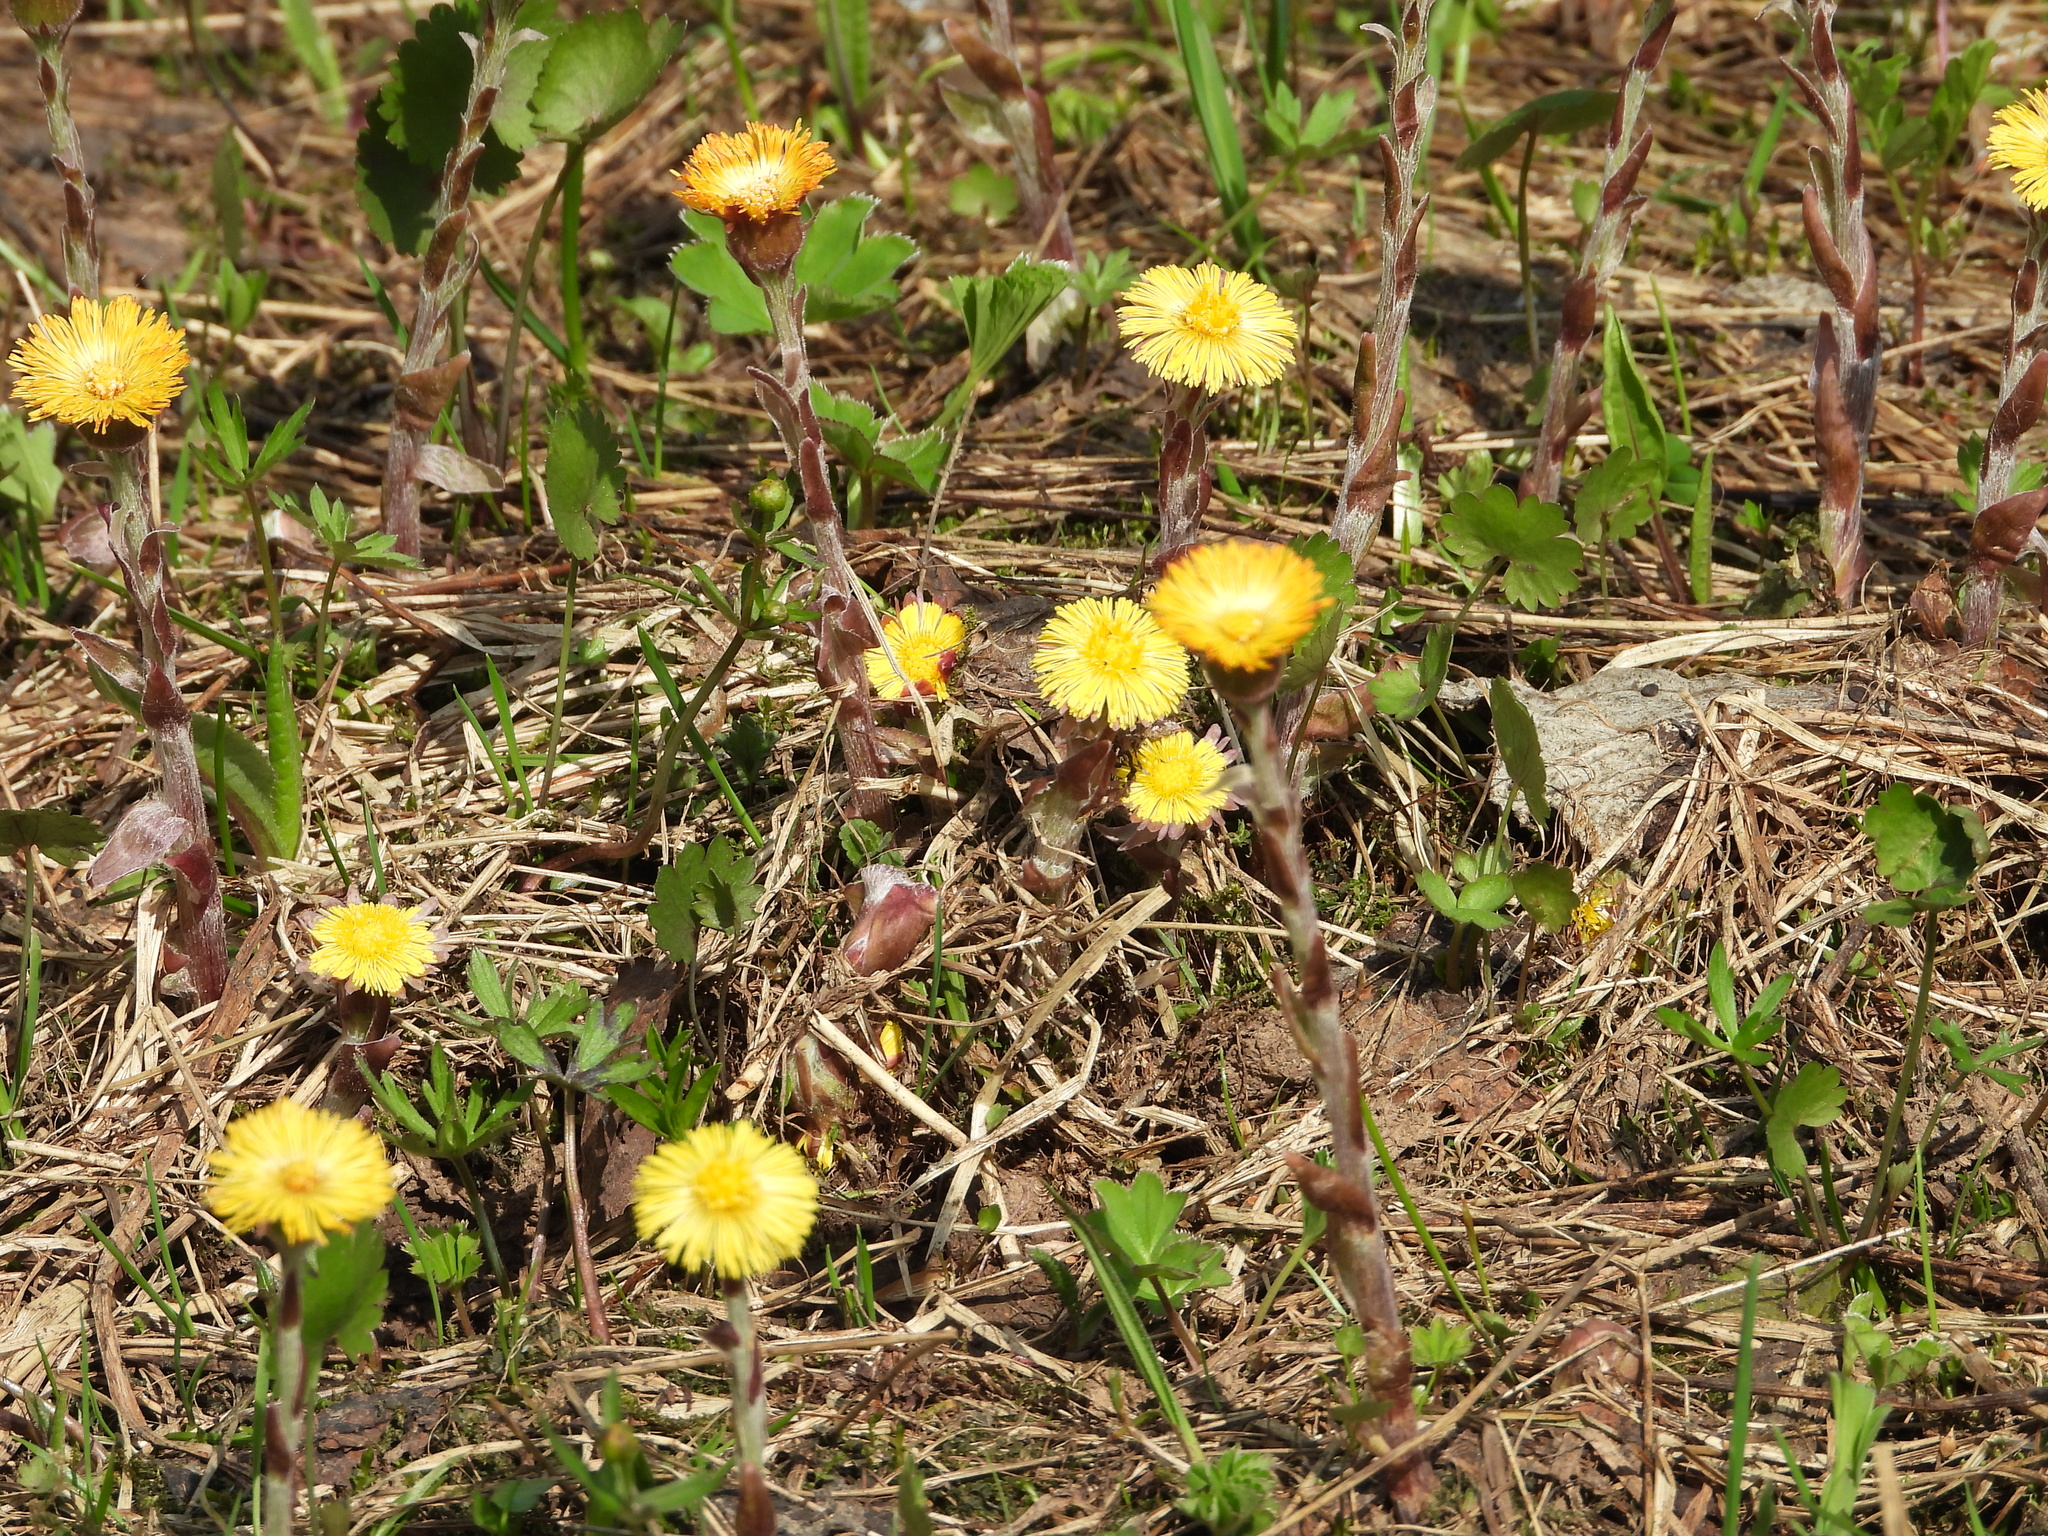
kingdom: Plantae
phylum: Tracheophyta
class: Magnoliopsida
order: Asterales
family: Asteraceae
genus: Tussilago
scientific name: Tussilago farfara
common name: Coltsfoot
